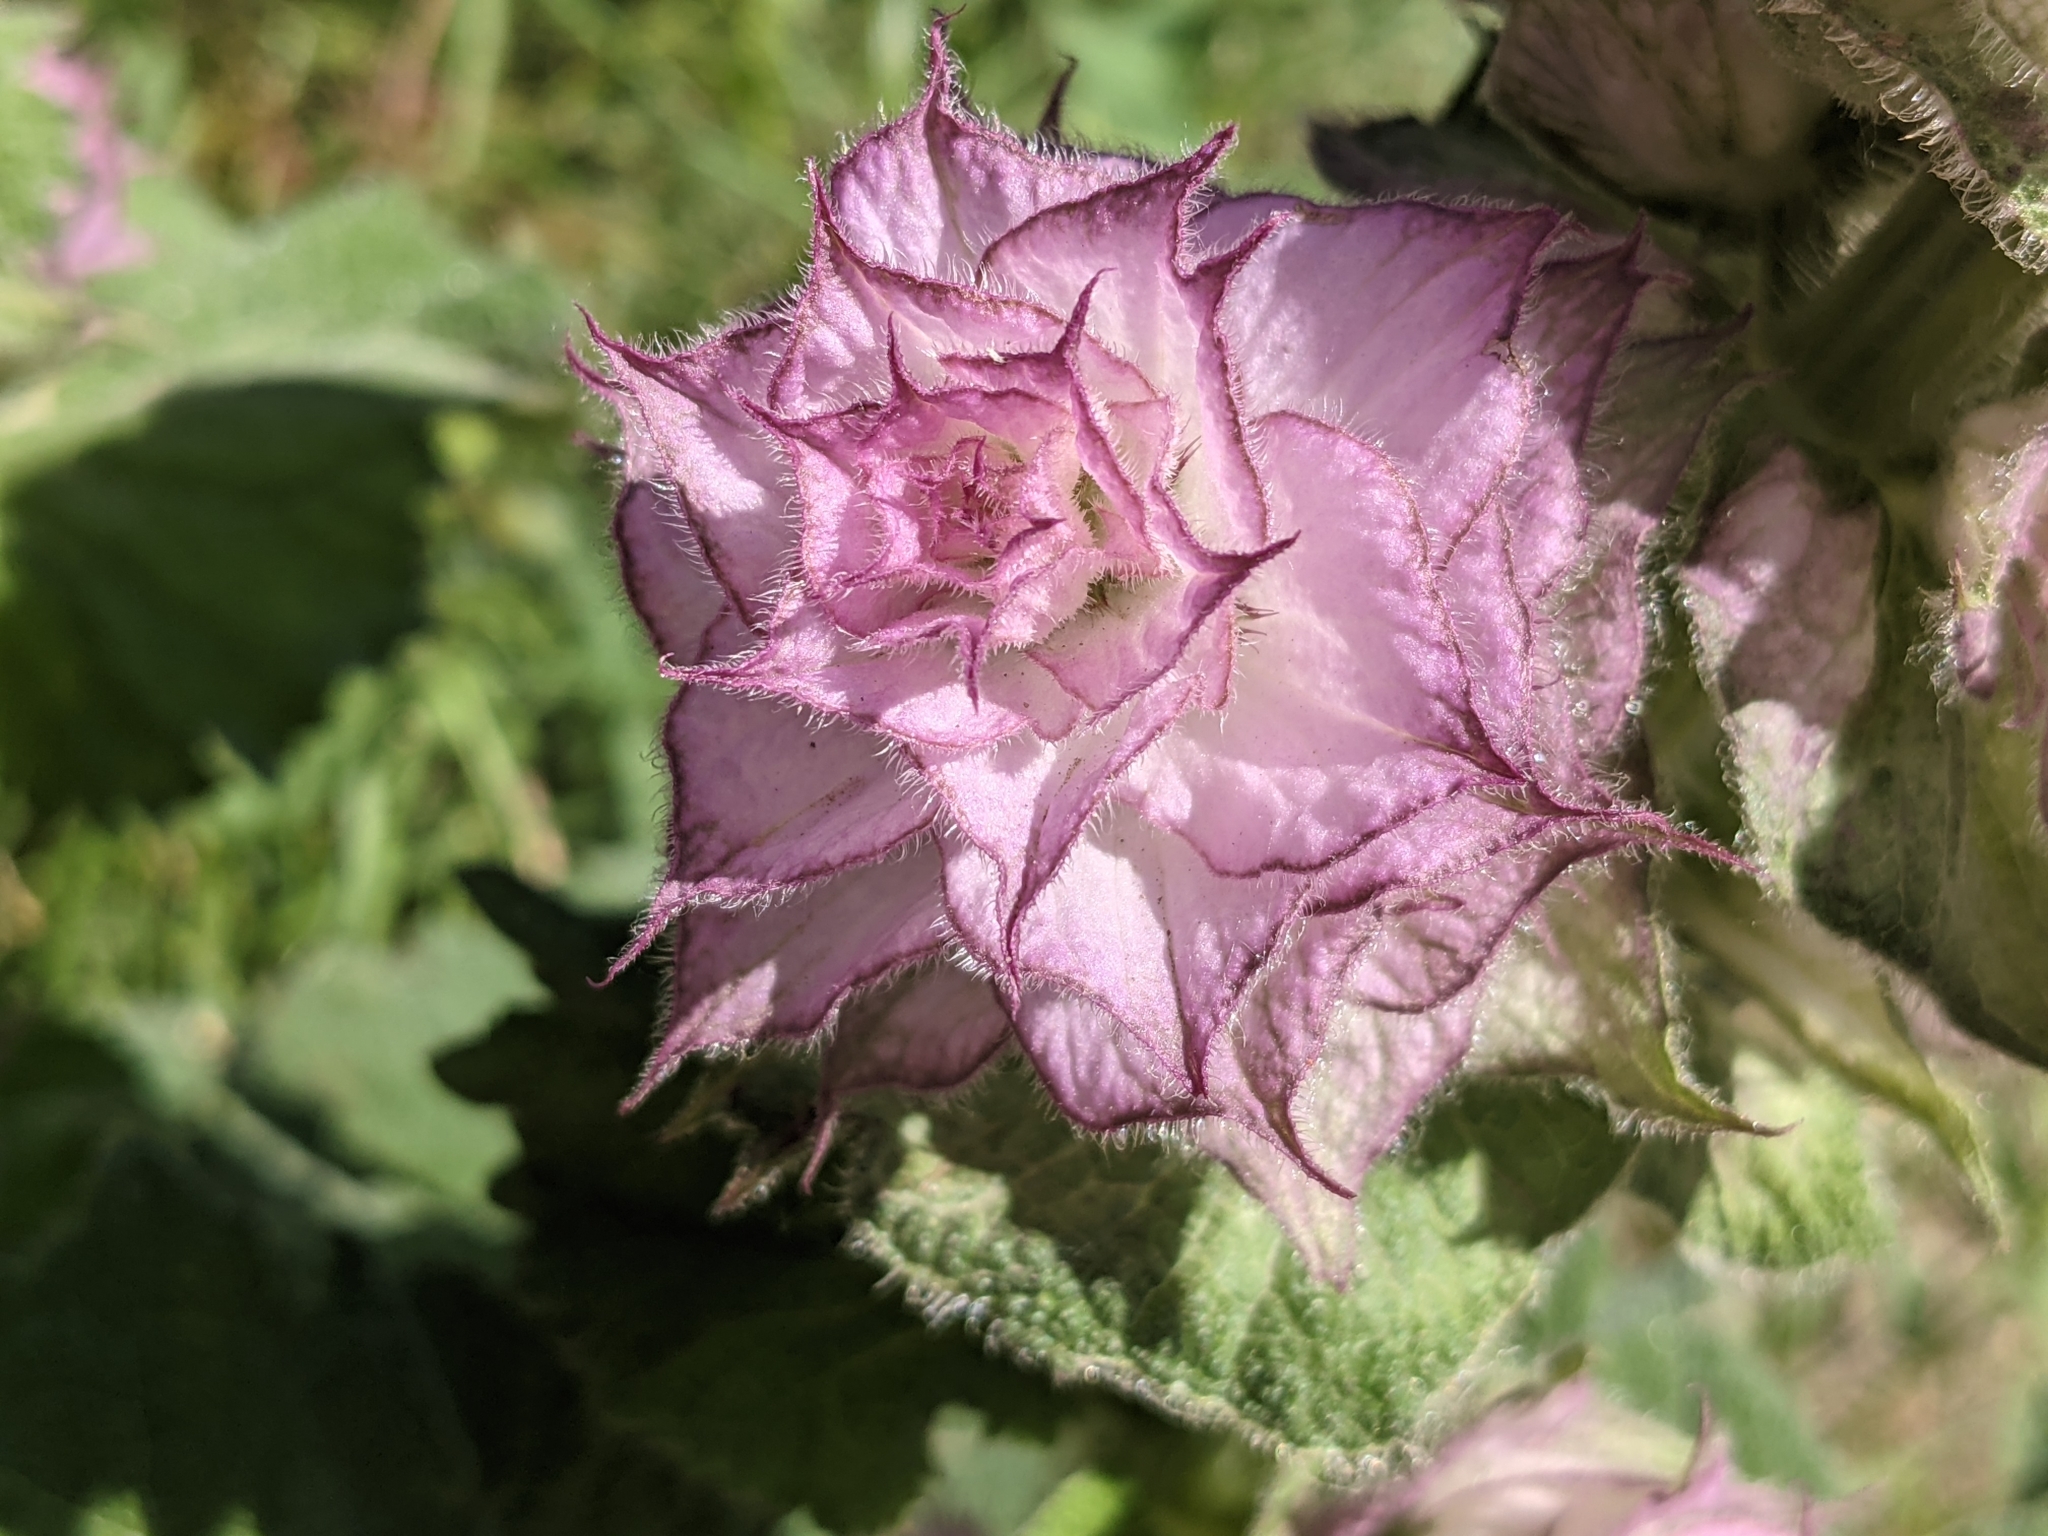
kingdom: Plantae
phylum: Tracheophyta
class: Magnoliopsida
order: Lamiales
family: Lamiaceae
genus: Salvia
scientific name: Salvia sclarea
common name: Clary
